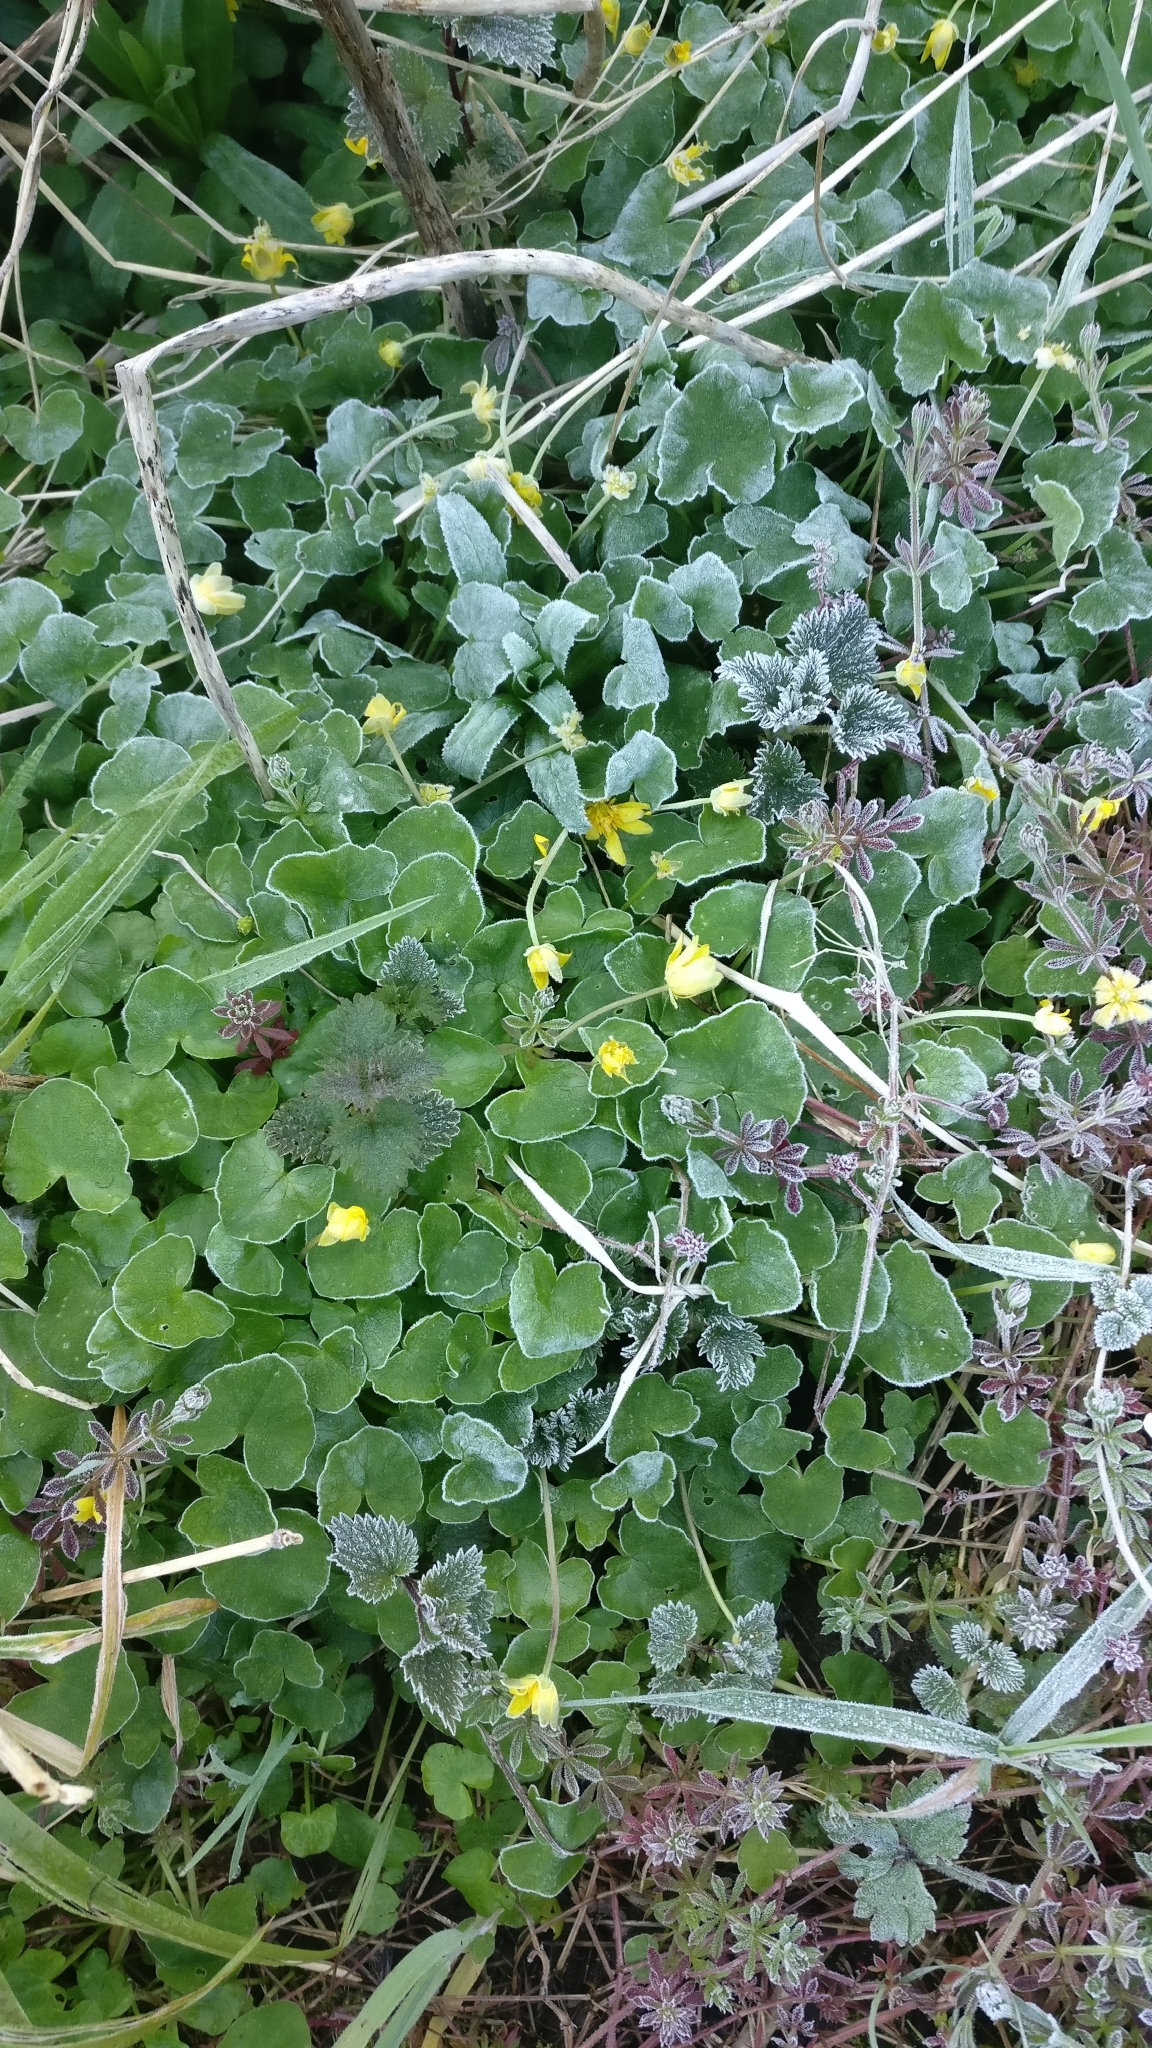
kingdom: Plantae
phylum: Tracheophyta
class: Magnoliopsida
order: Ranunculales
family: Ranunculaceae
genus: Ficaria
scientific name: Ficaria verna
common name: Lesser celandine
